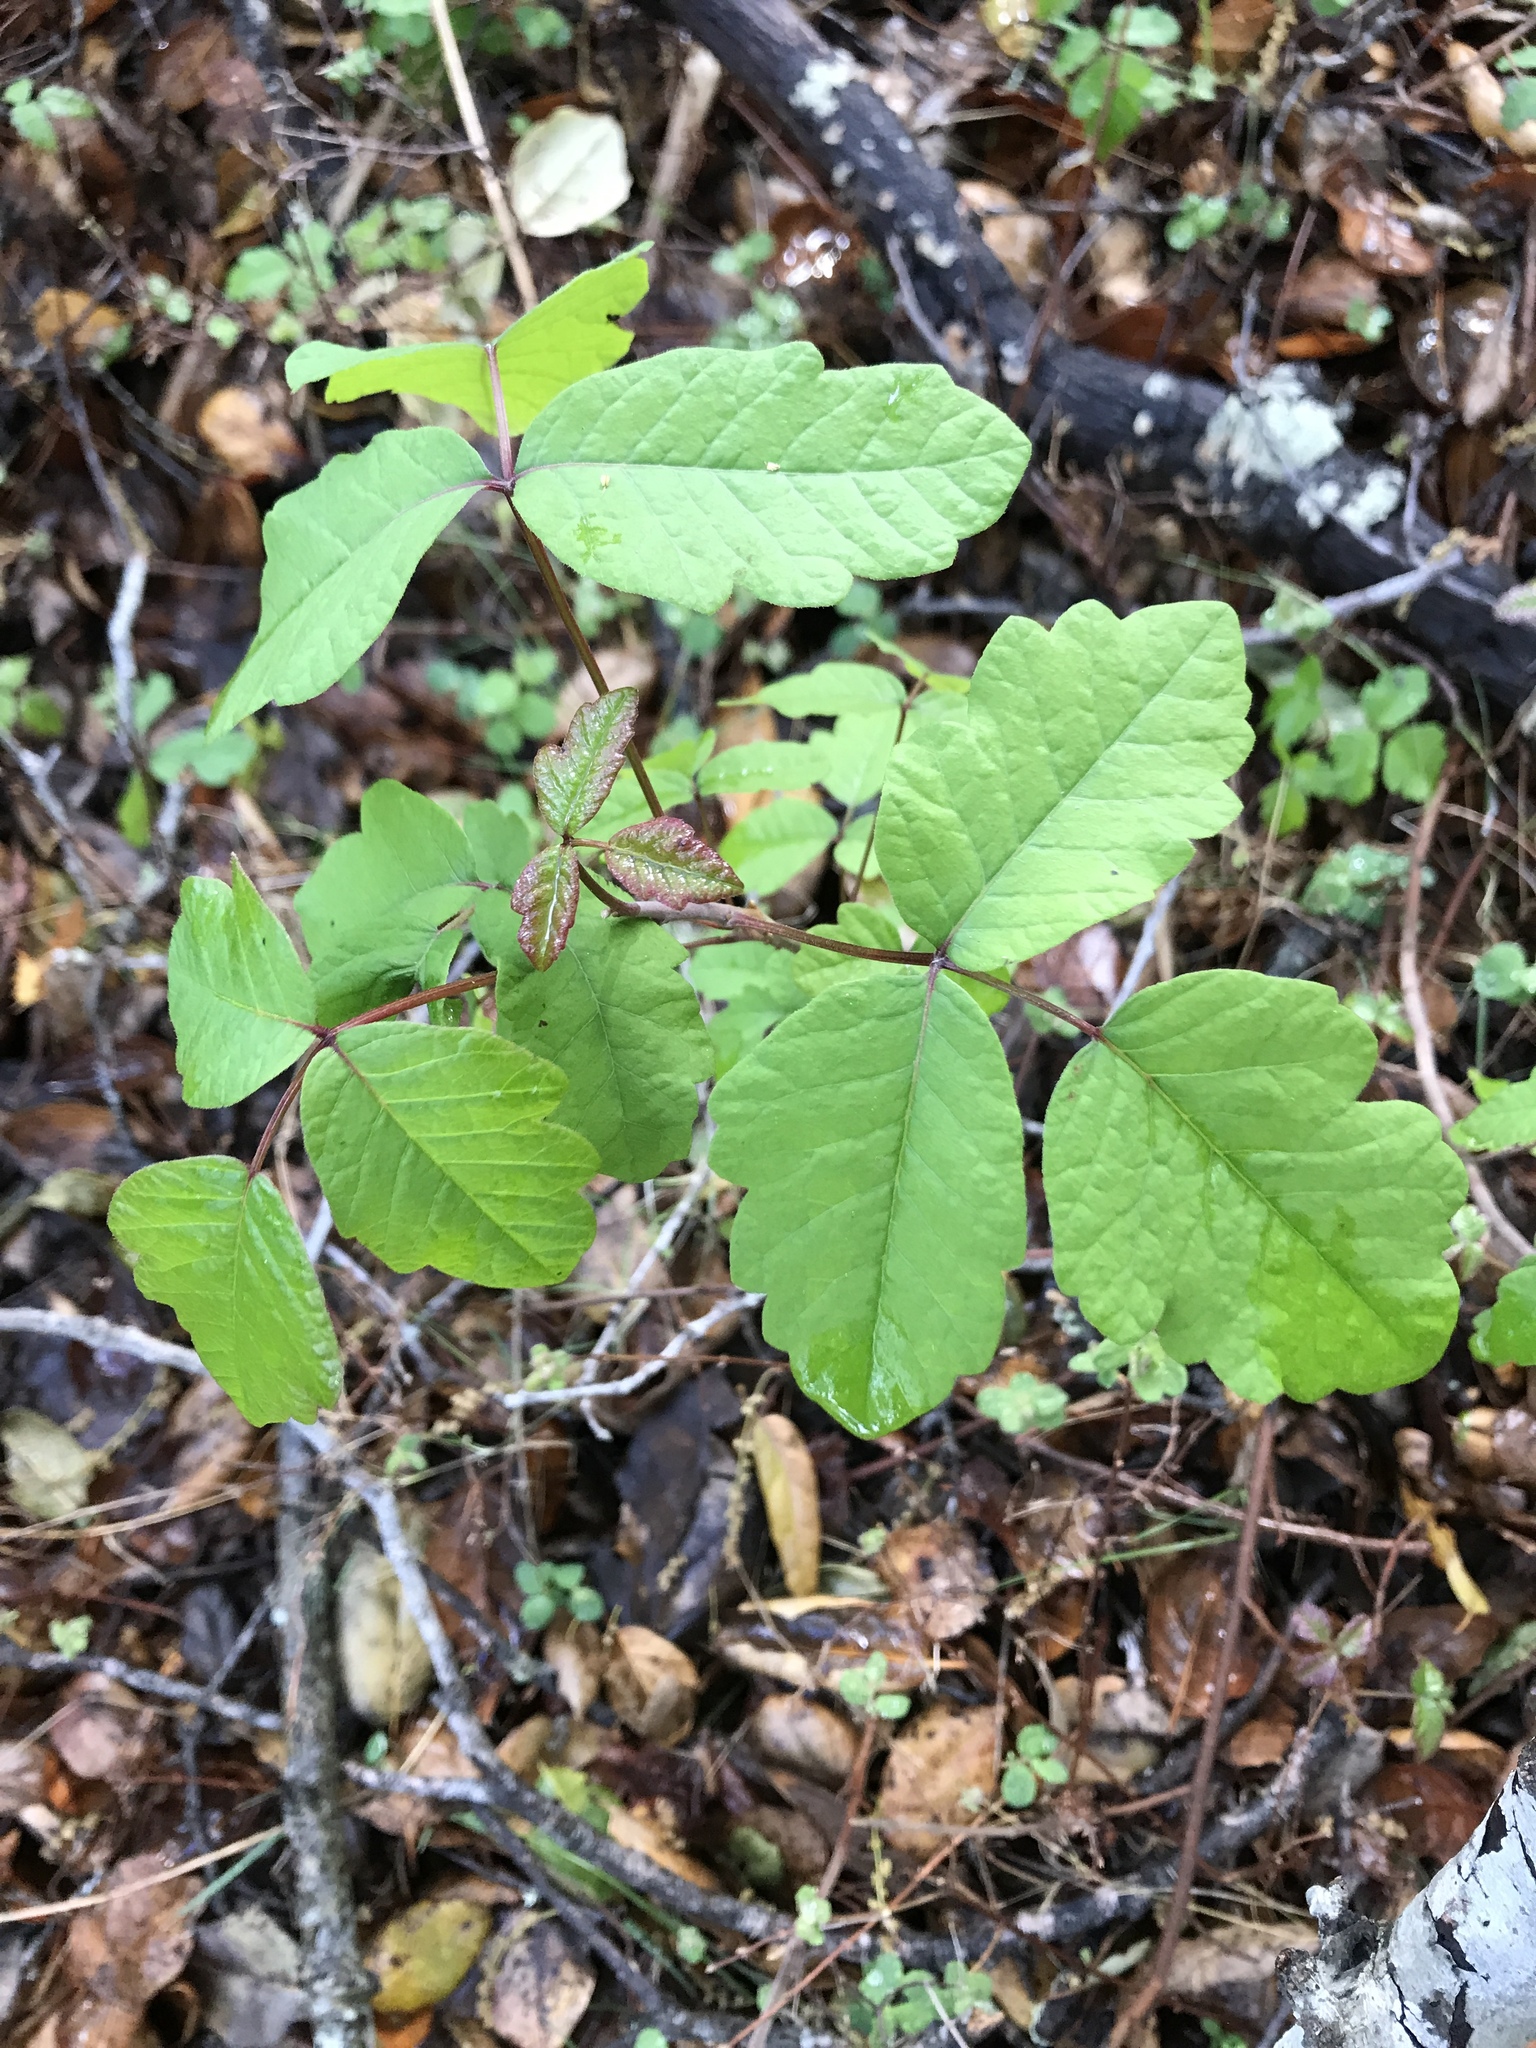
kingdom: Plantae
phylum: Tracheophyta
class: Magnoliopsida
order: Sapindales
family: Anacardiaceae
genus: Toxicodendron
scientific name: Toxicodendron diversilobum
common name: Pacific poison-oak
